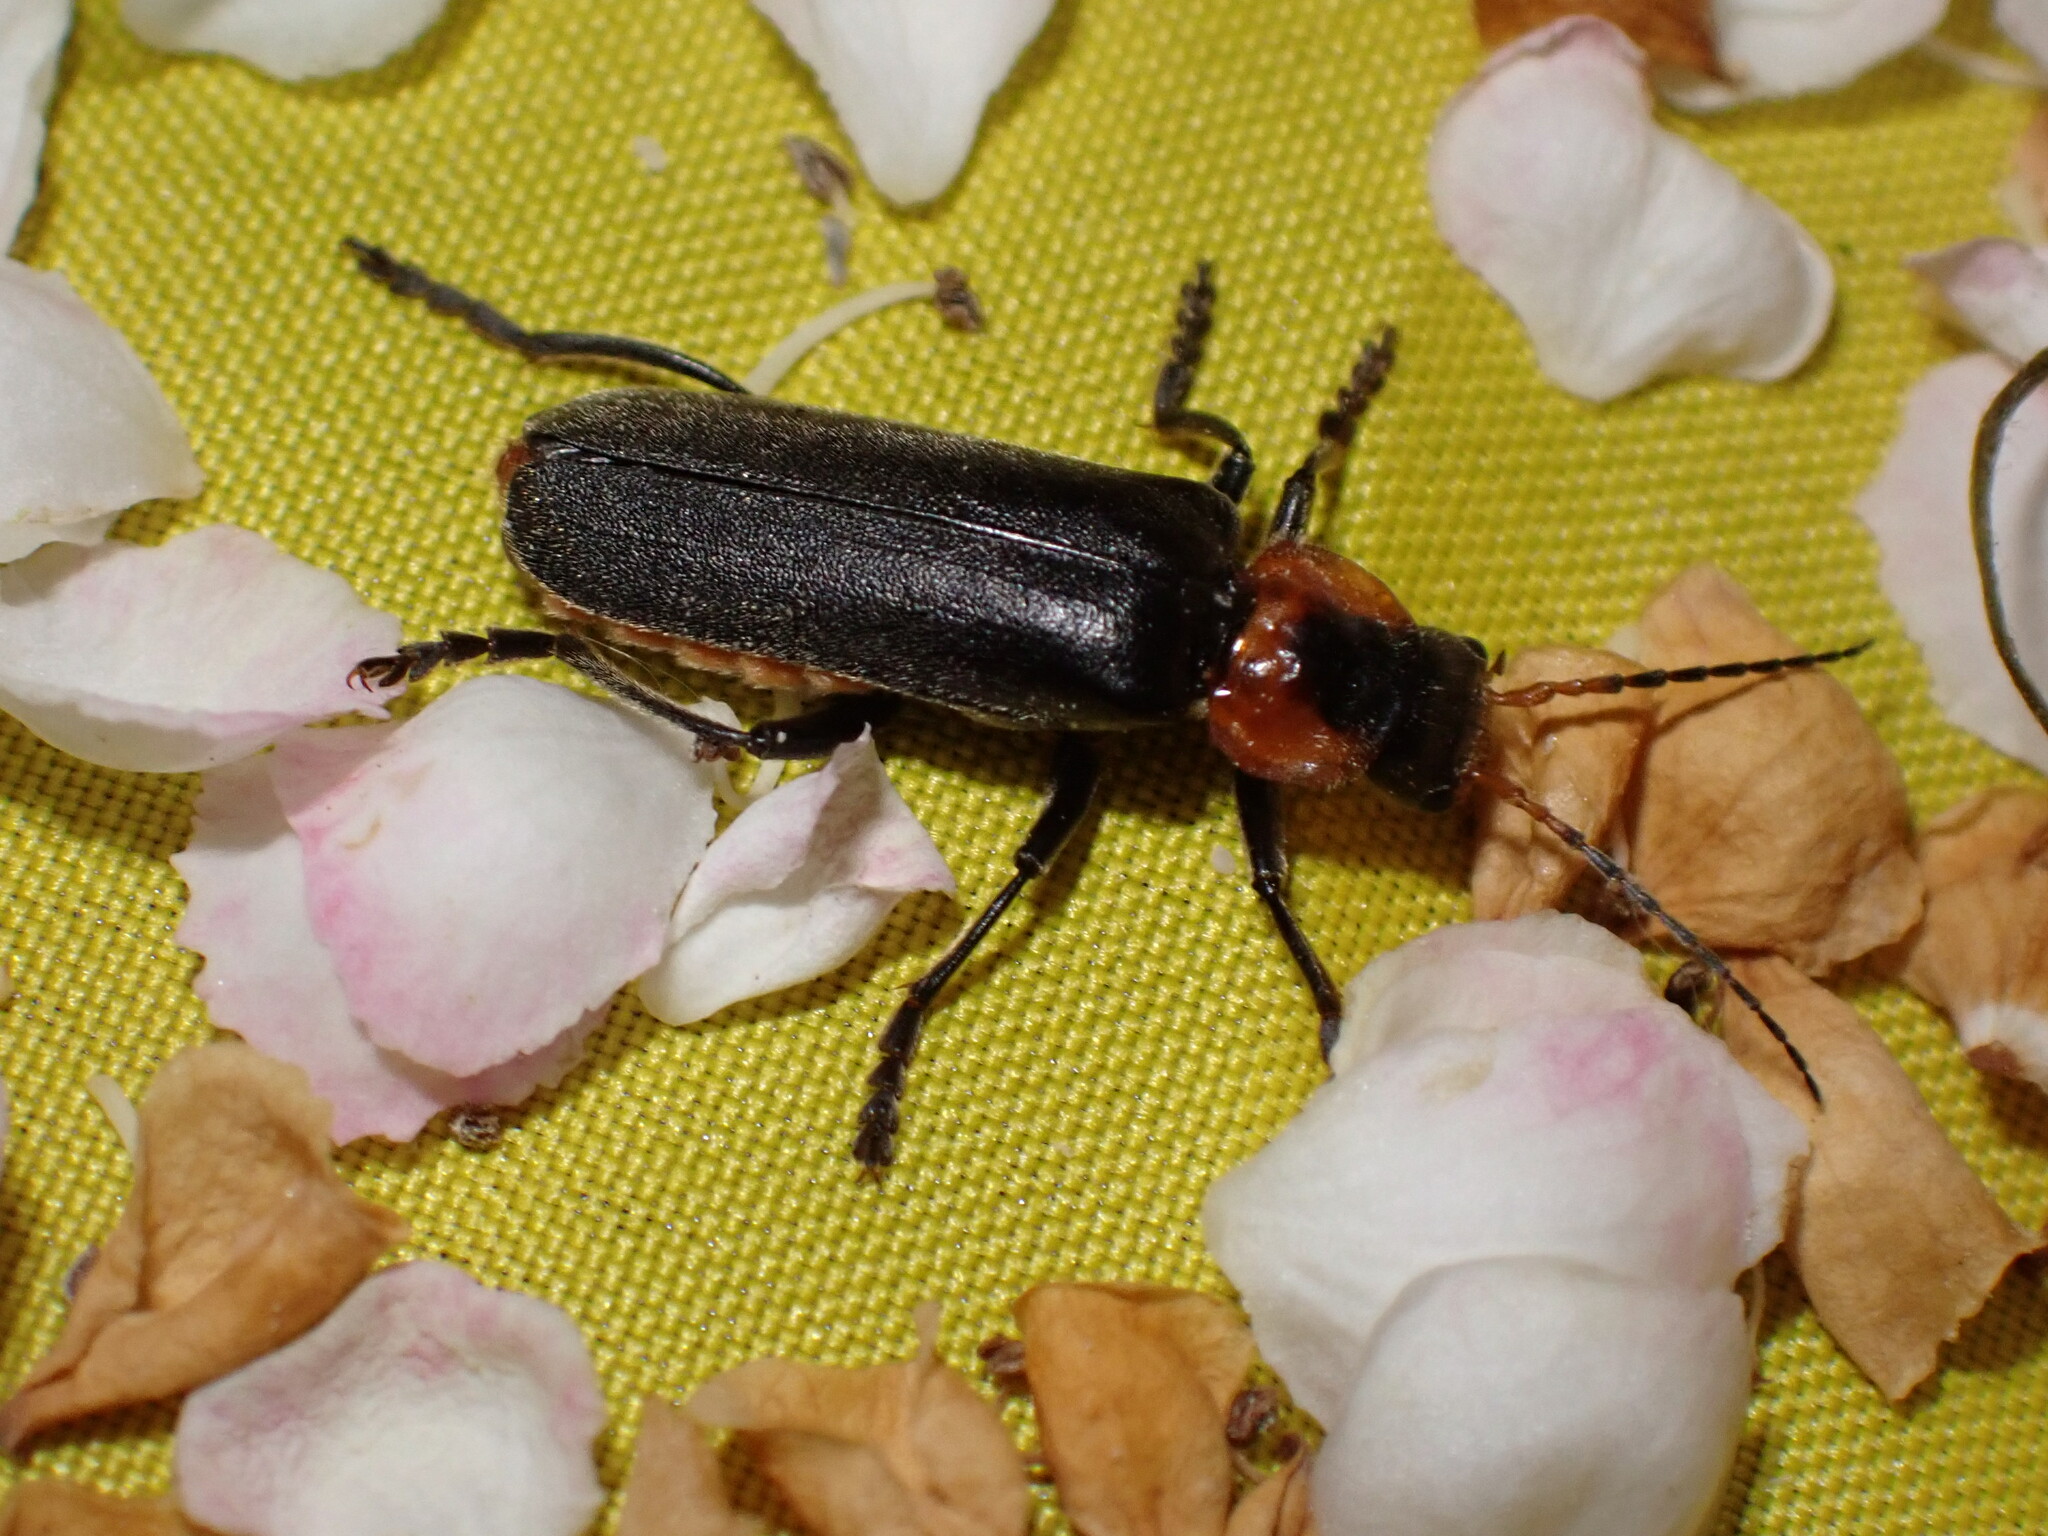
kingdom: Animalia
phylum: Arthropoda
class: Insecta
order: Coleoptera
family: Cantharidae
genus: Cantharis
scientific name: Cantharis fusca
